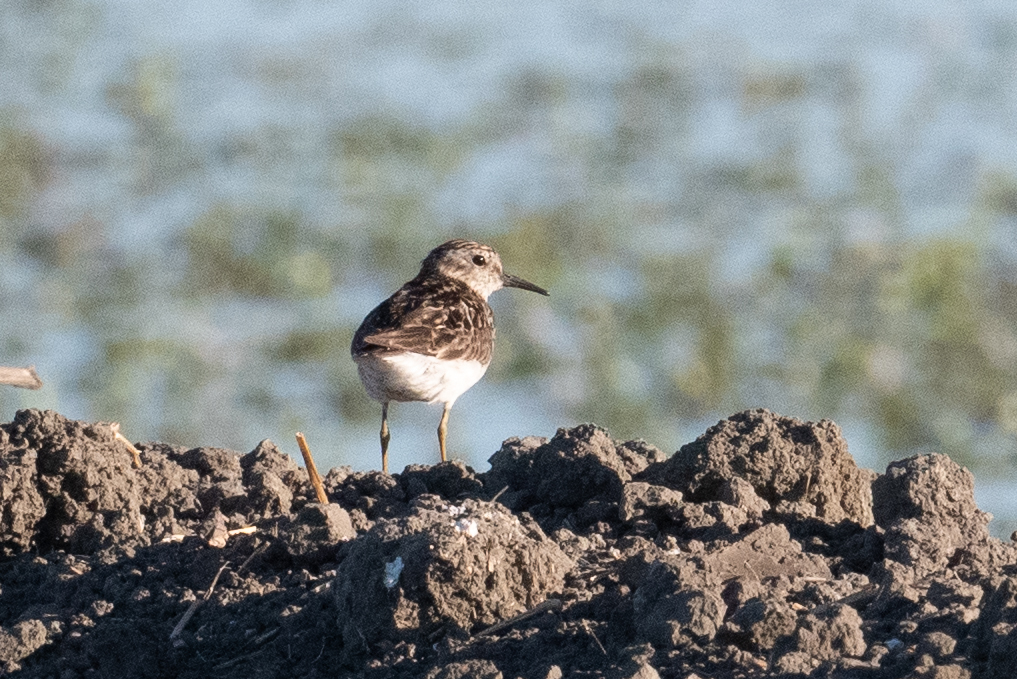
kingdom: Animalia
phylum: Chordata
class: Aves
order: Charadriiformes
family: Scolopacidae
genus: Calidris
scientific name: Calidris minutilla
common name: Least sandpiper
